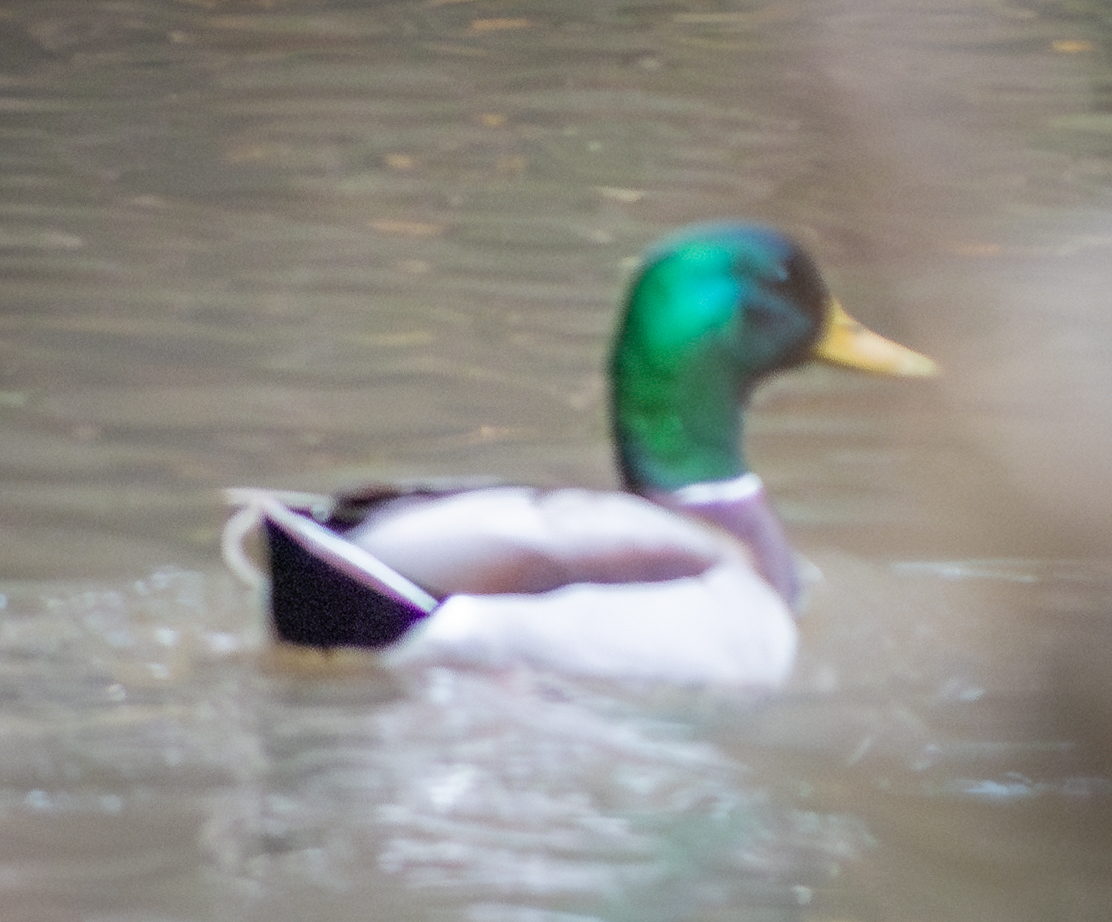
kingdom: Animalia
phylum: Chordata
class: Aves
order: Anseriformes
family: Anatidae
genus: Anas
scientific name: Anas platyrhynchos
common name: Mallard
